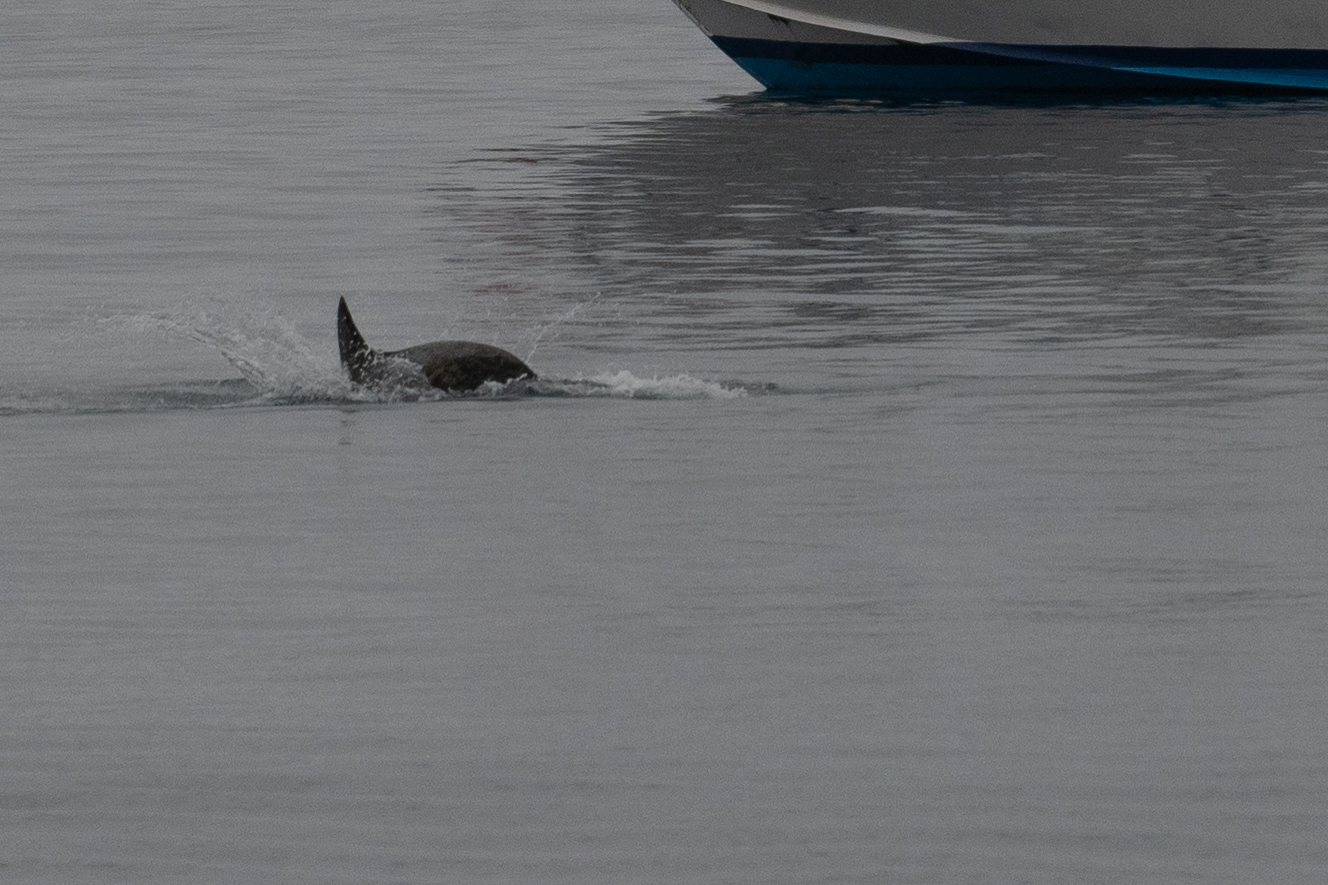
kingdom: Animalia
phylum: Chordata
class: Mammalia
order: Cetacea
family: Delphinidae
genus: Grampus
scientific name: Grampus griseus
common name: Risso's dolphin
